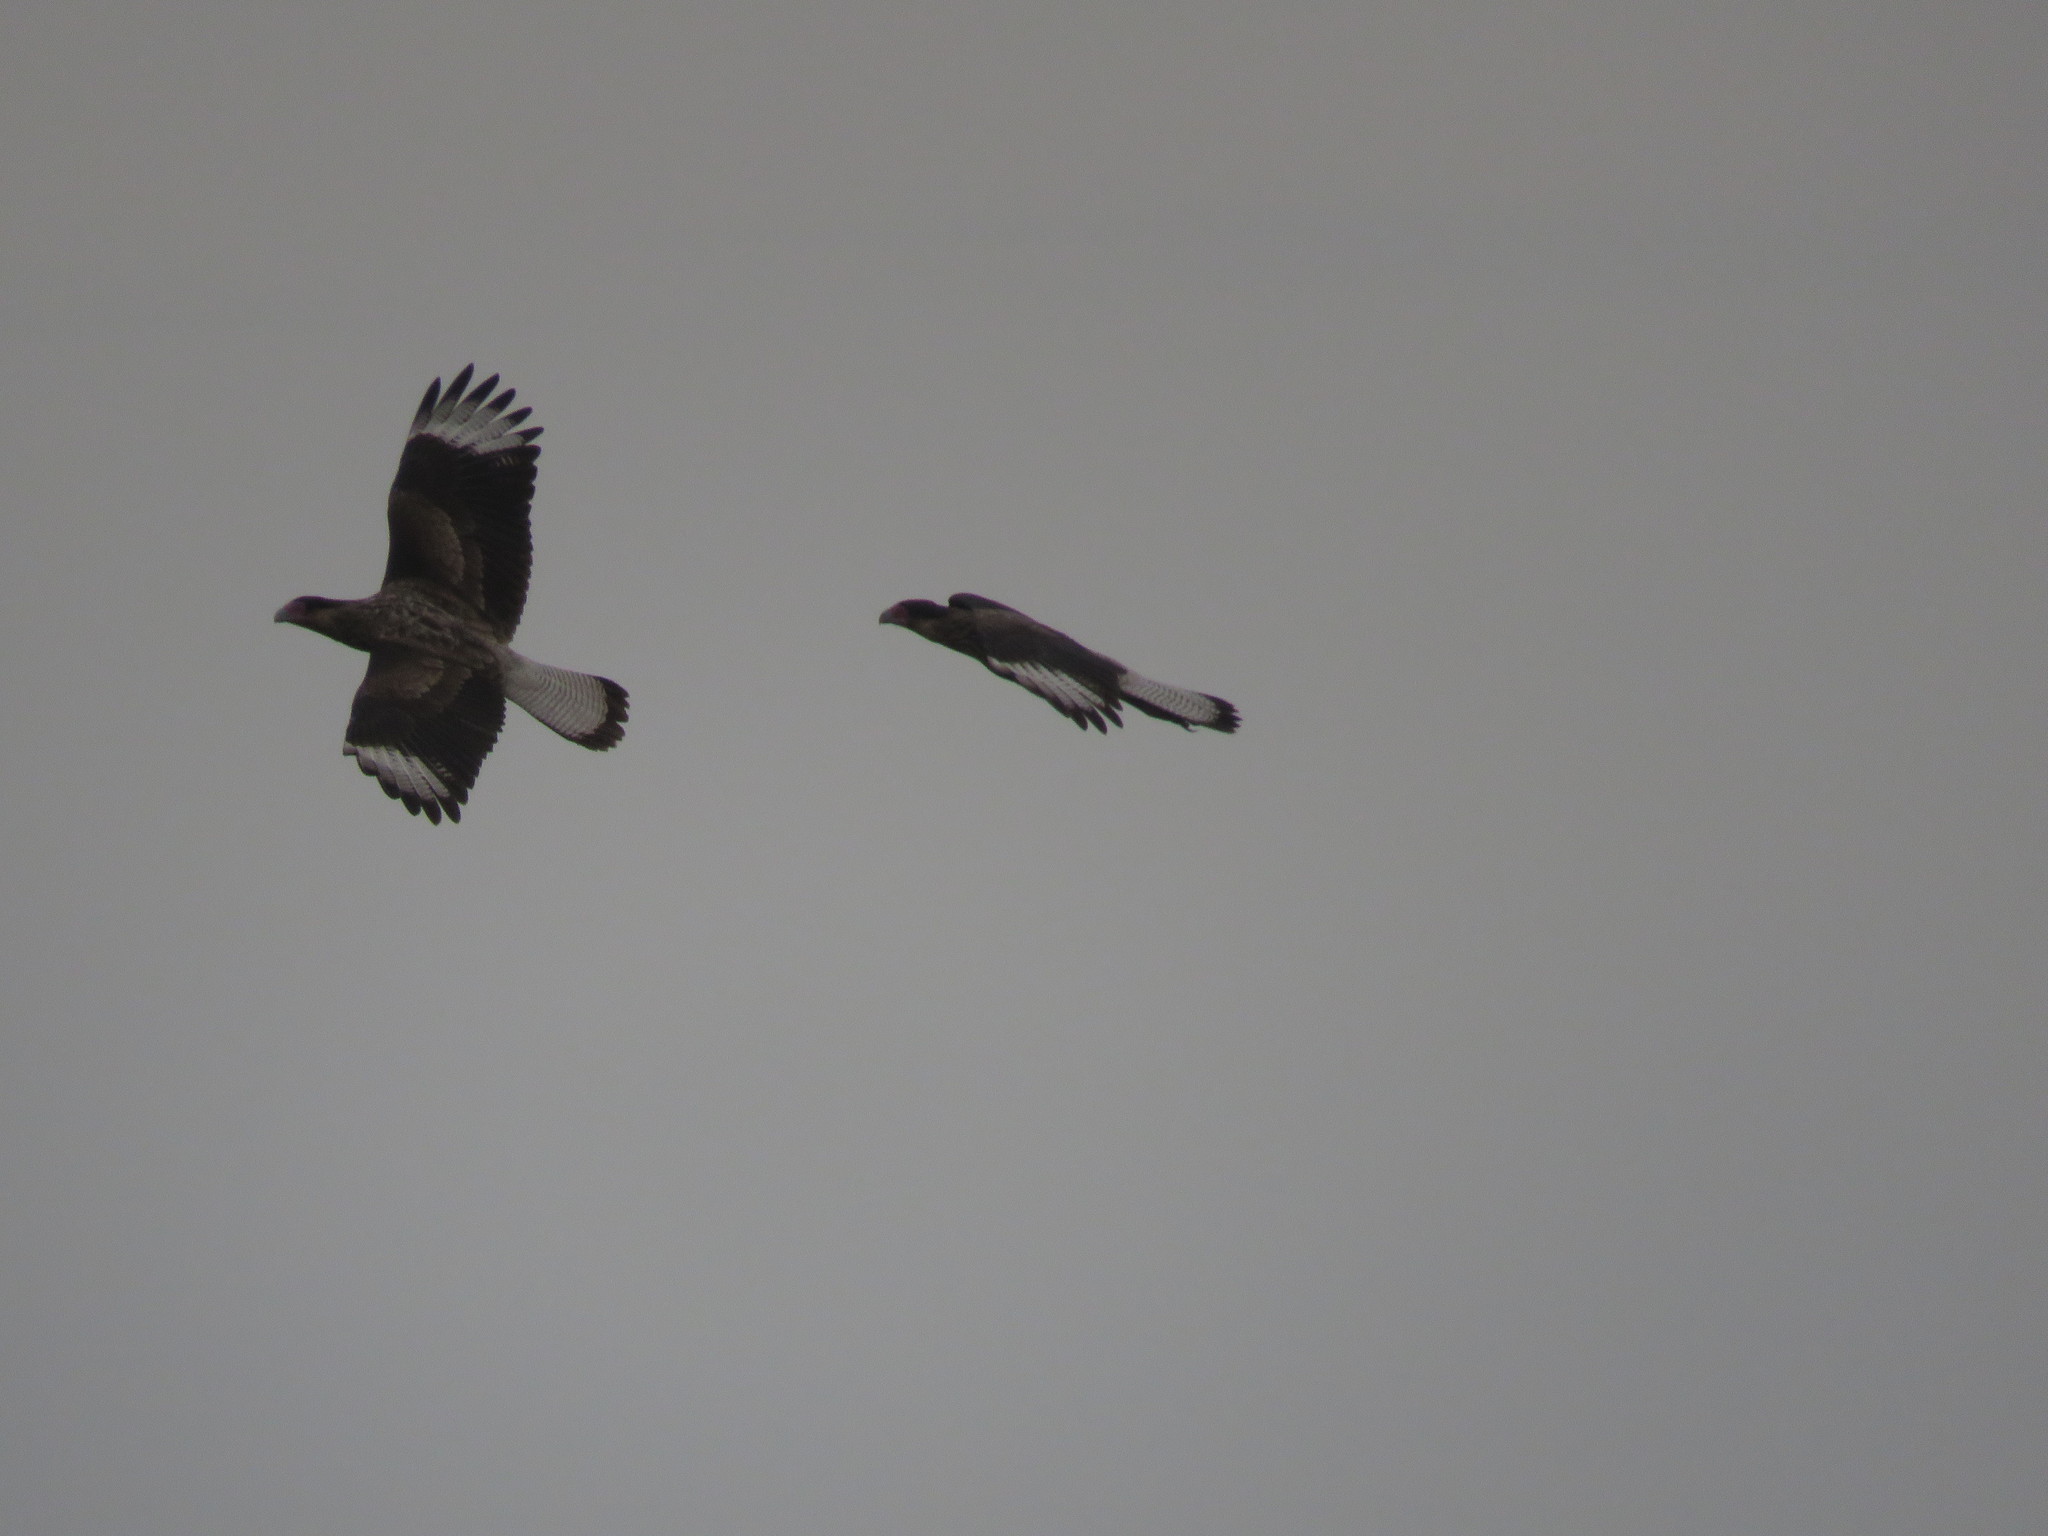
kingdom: Animalia
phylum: Chordata
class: Aves
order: Falconiformes
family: Falconidae
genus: Caracara
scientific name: Caracara plancus
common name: Southern caracara
